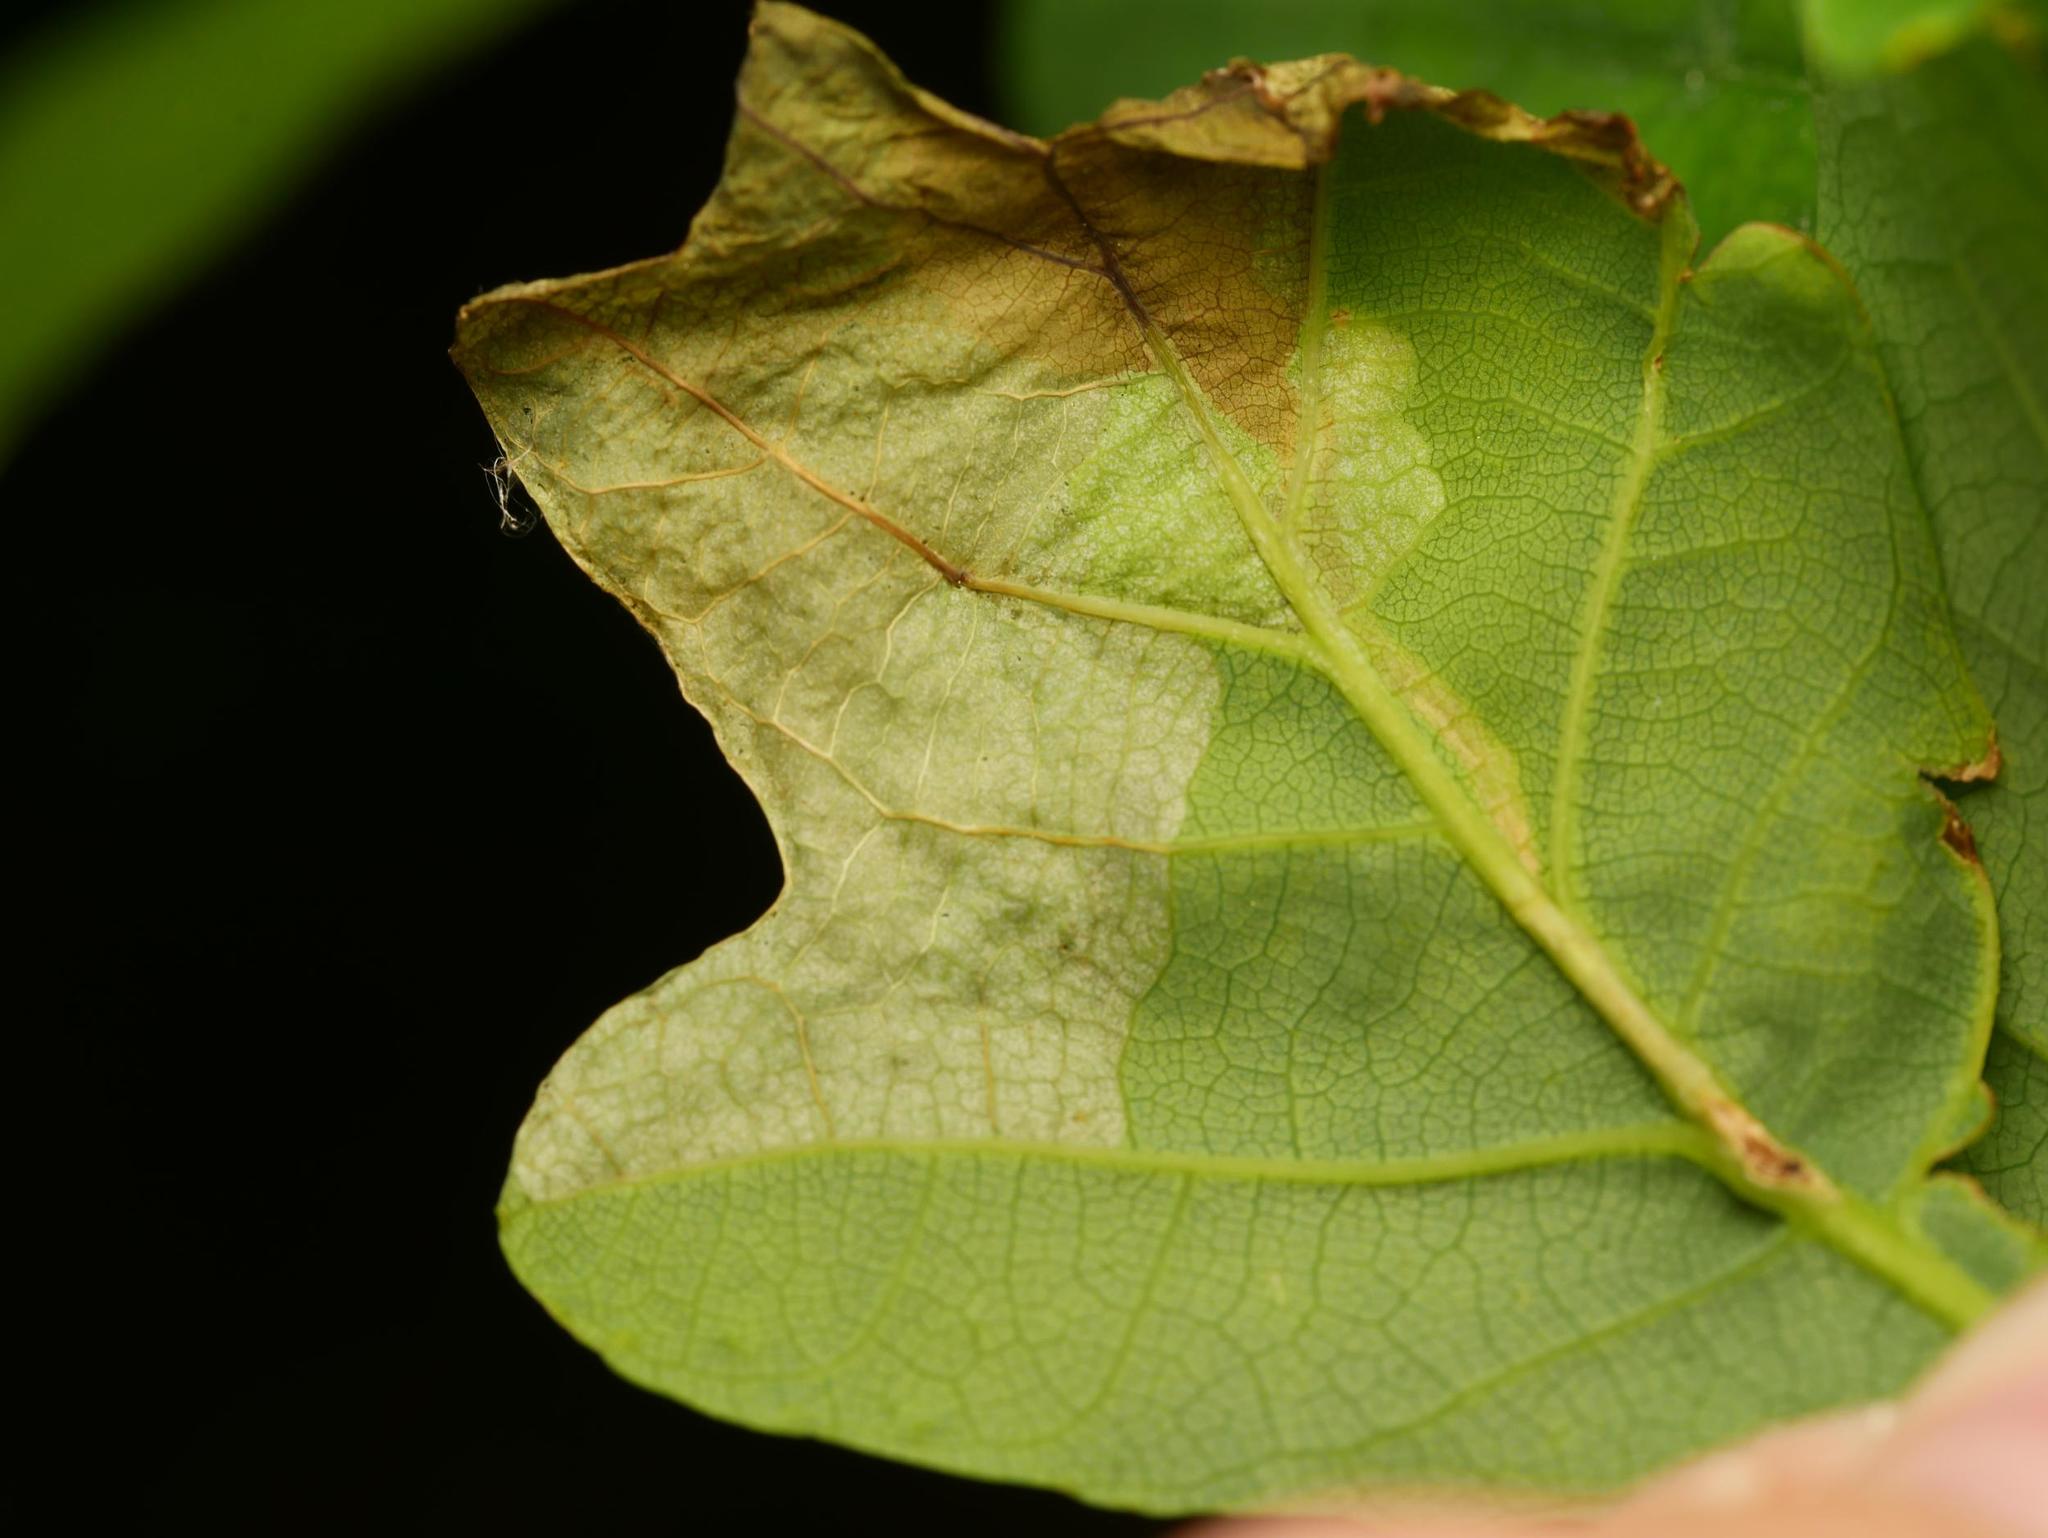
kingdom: Animalia
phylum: Arthropoda
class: Insecta
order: Coleoptera
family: Curculionidae
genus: Orchestes
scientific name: Orchestes quercus
